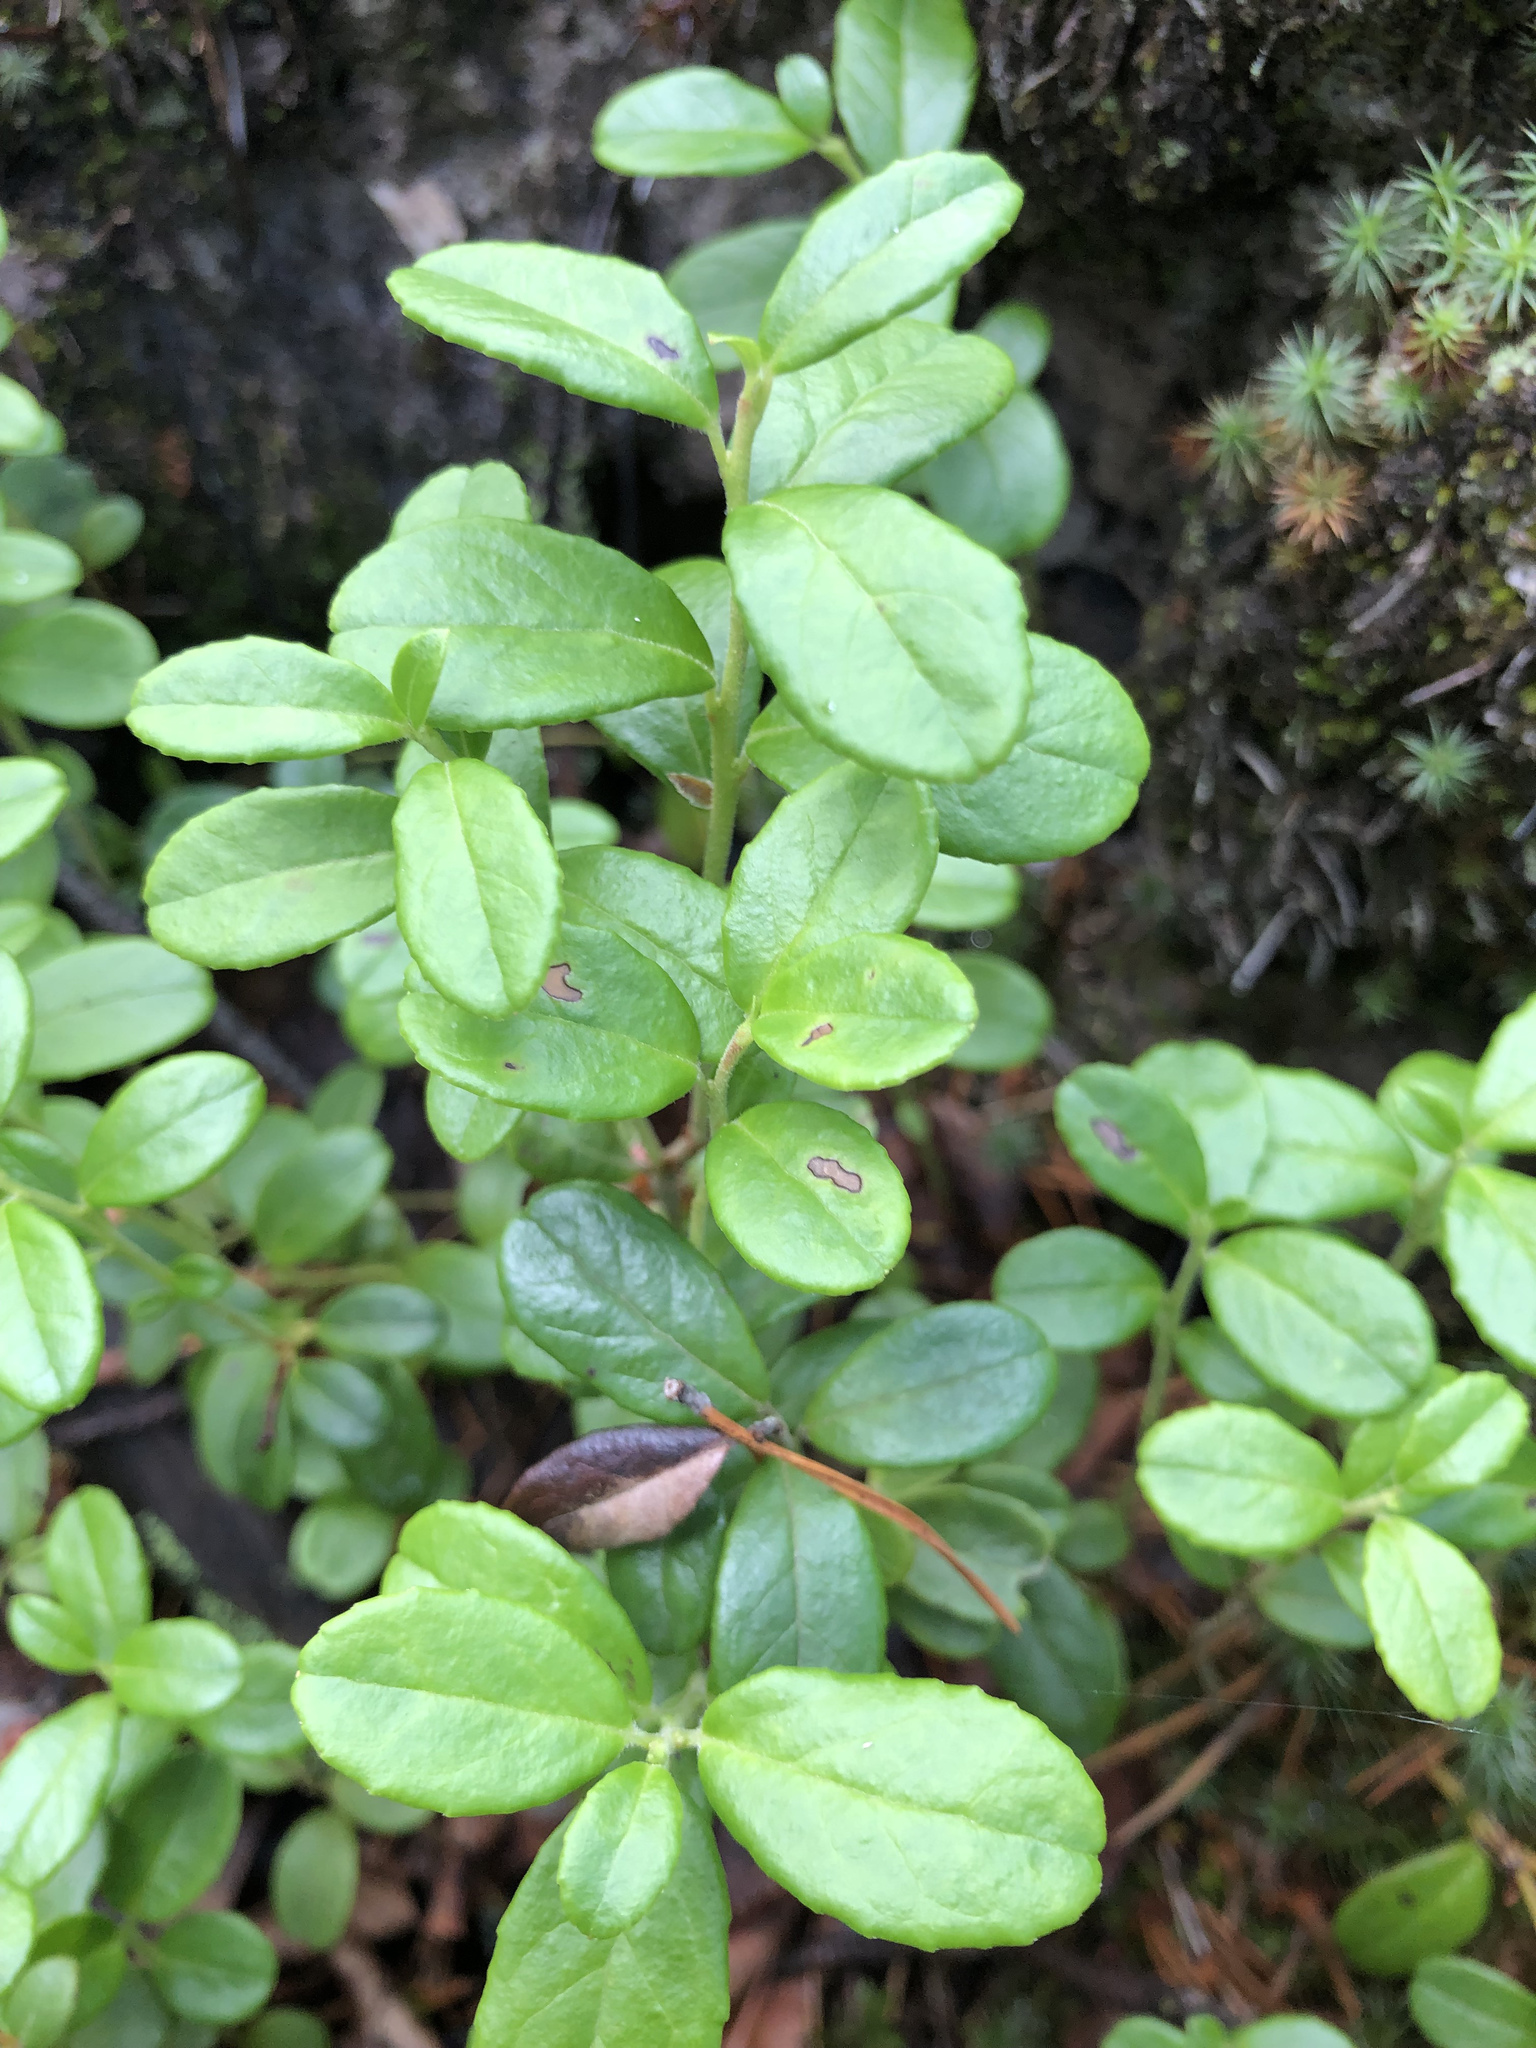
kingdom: Plantae
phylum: Tracheophyta
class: Magnoliopsida
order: Ericales
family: Ericaceae
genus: Vaccinium
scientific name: Vaccinium vitis-idaea
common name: Cowberry
